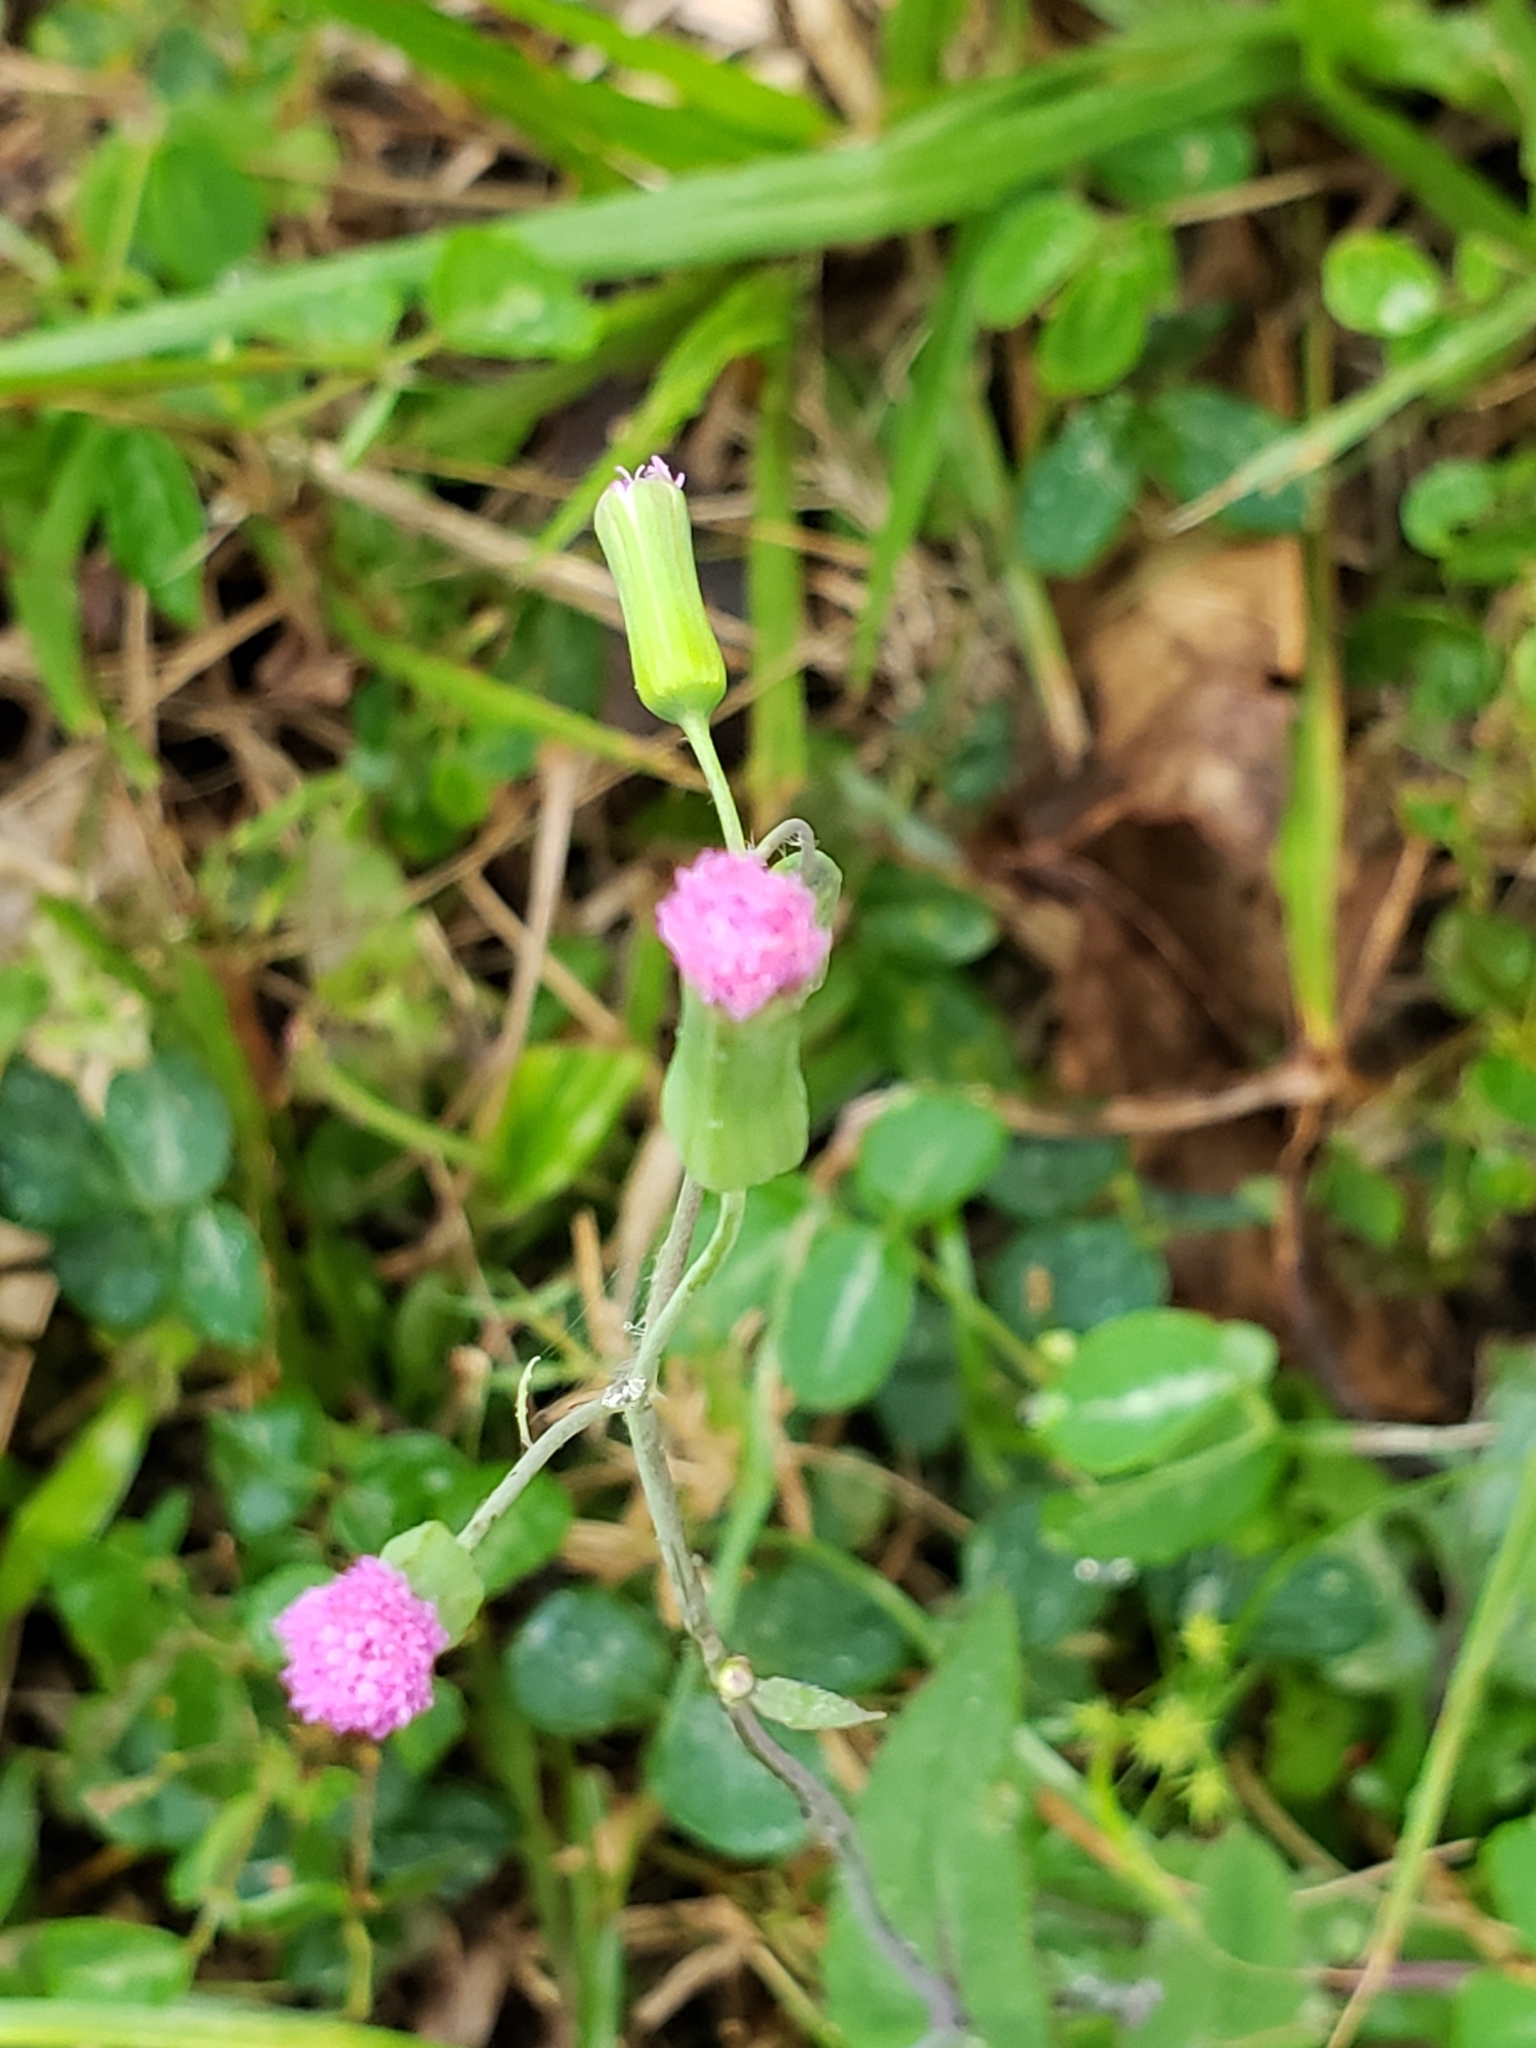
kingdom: Plantae
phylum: Tracheophyta
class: Magnoliopsida
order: Asterales
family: Asteraceae
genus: Emilia
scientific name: Emilia sonchifolia
